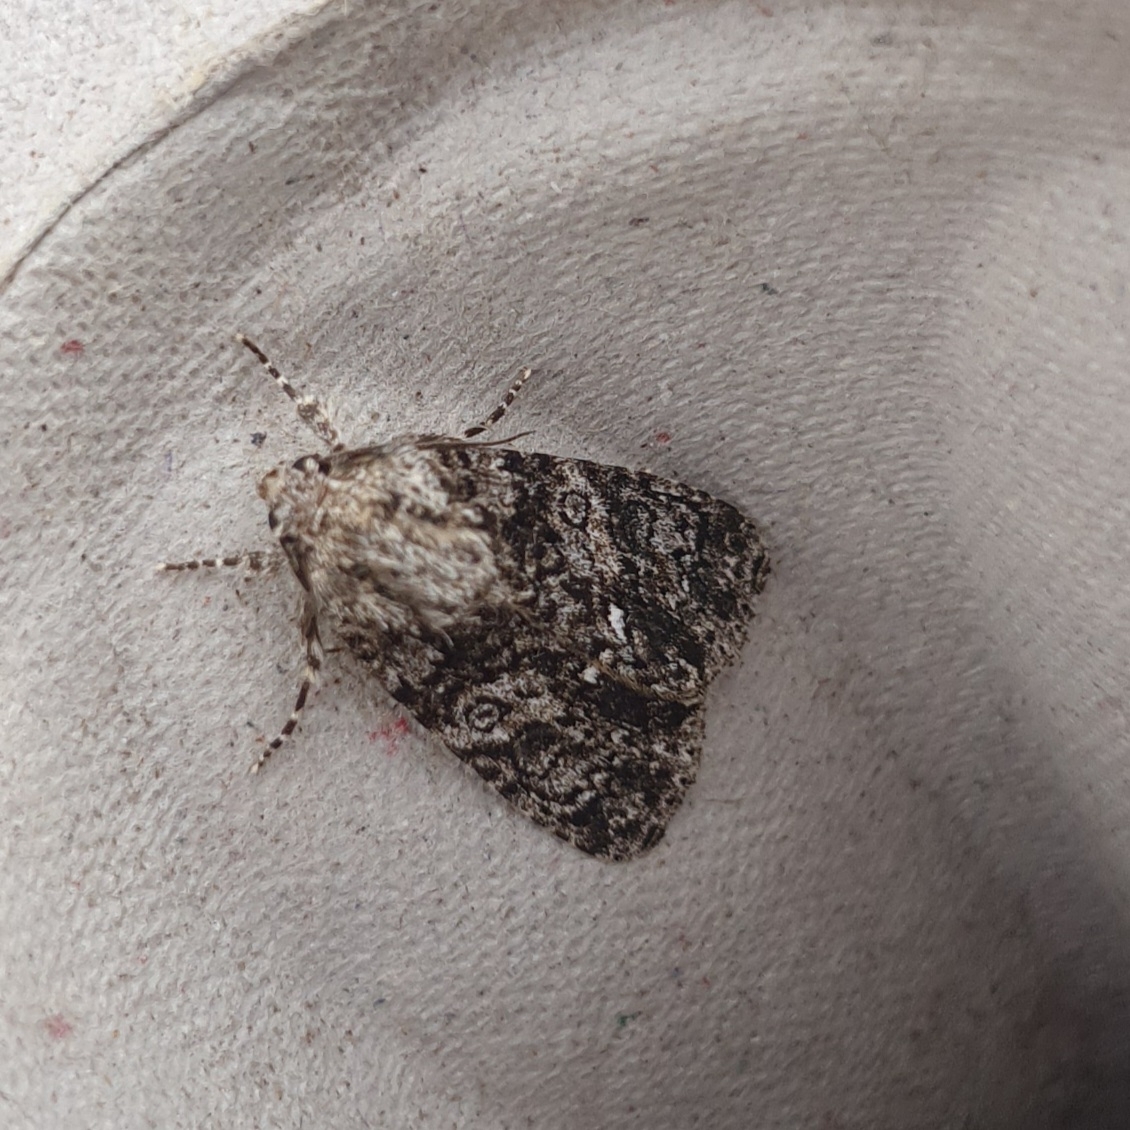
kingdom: Animalia
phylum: Arthropoda
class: Insecta
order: Lepidoptera
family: Noctuidae
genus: Acronicta
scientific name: Acronicta rumicis
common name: Knot grass
